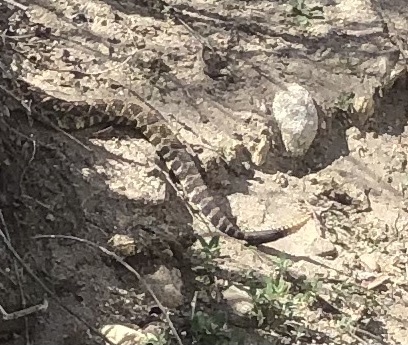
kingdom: Animalia
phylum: Chordata
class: Squamata
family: Viperidae
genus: Crotalus
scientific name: Crotalus oreganus
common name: Abyssus
